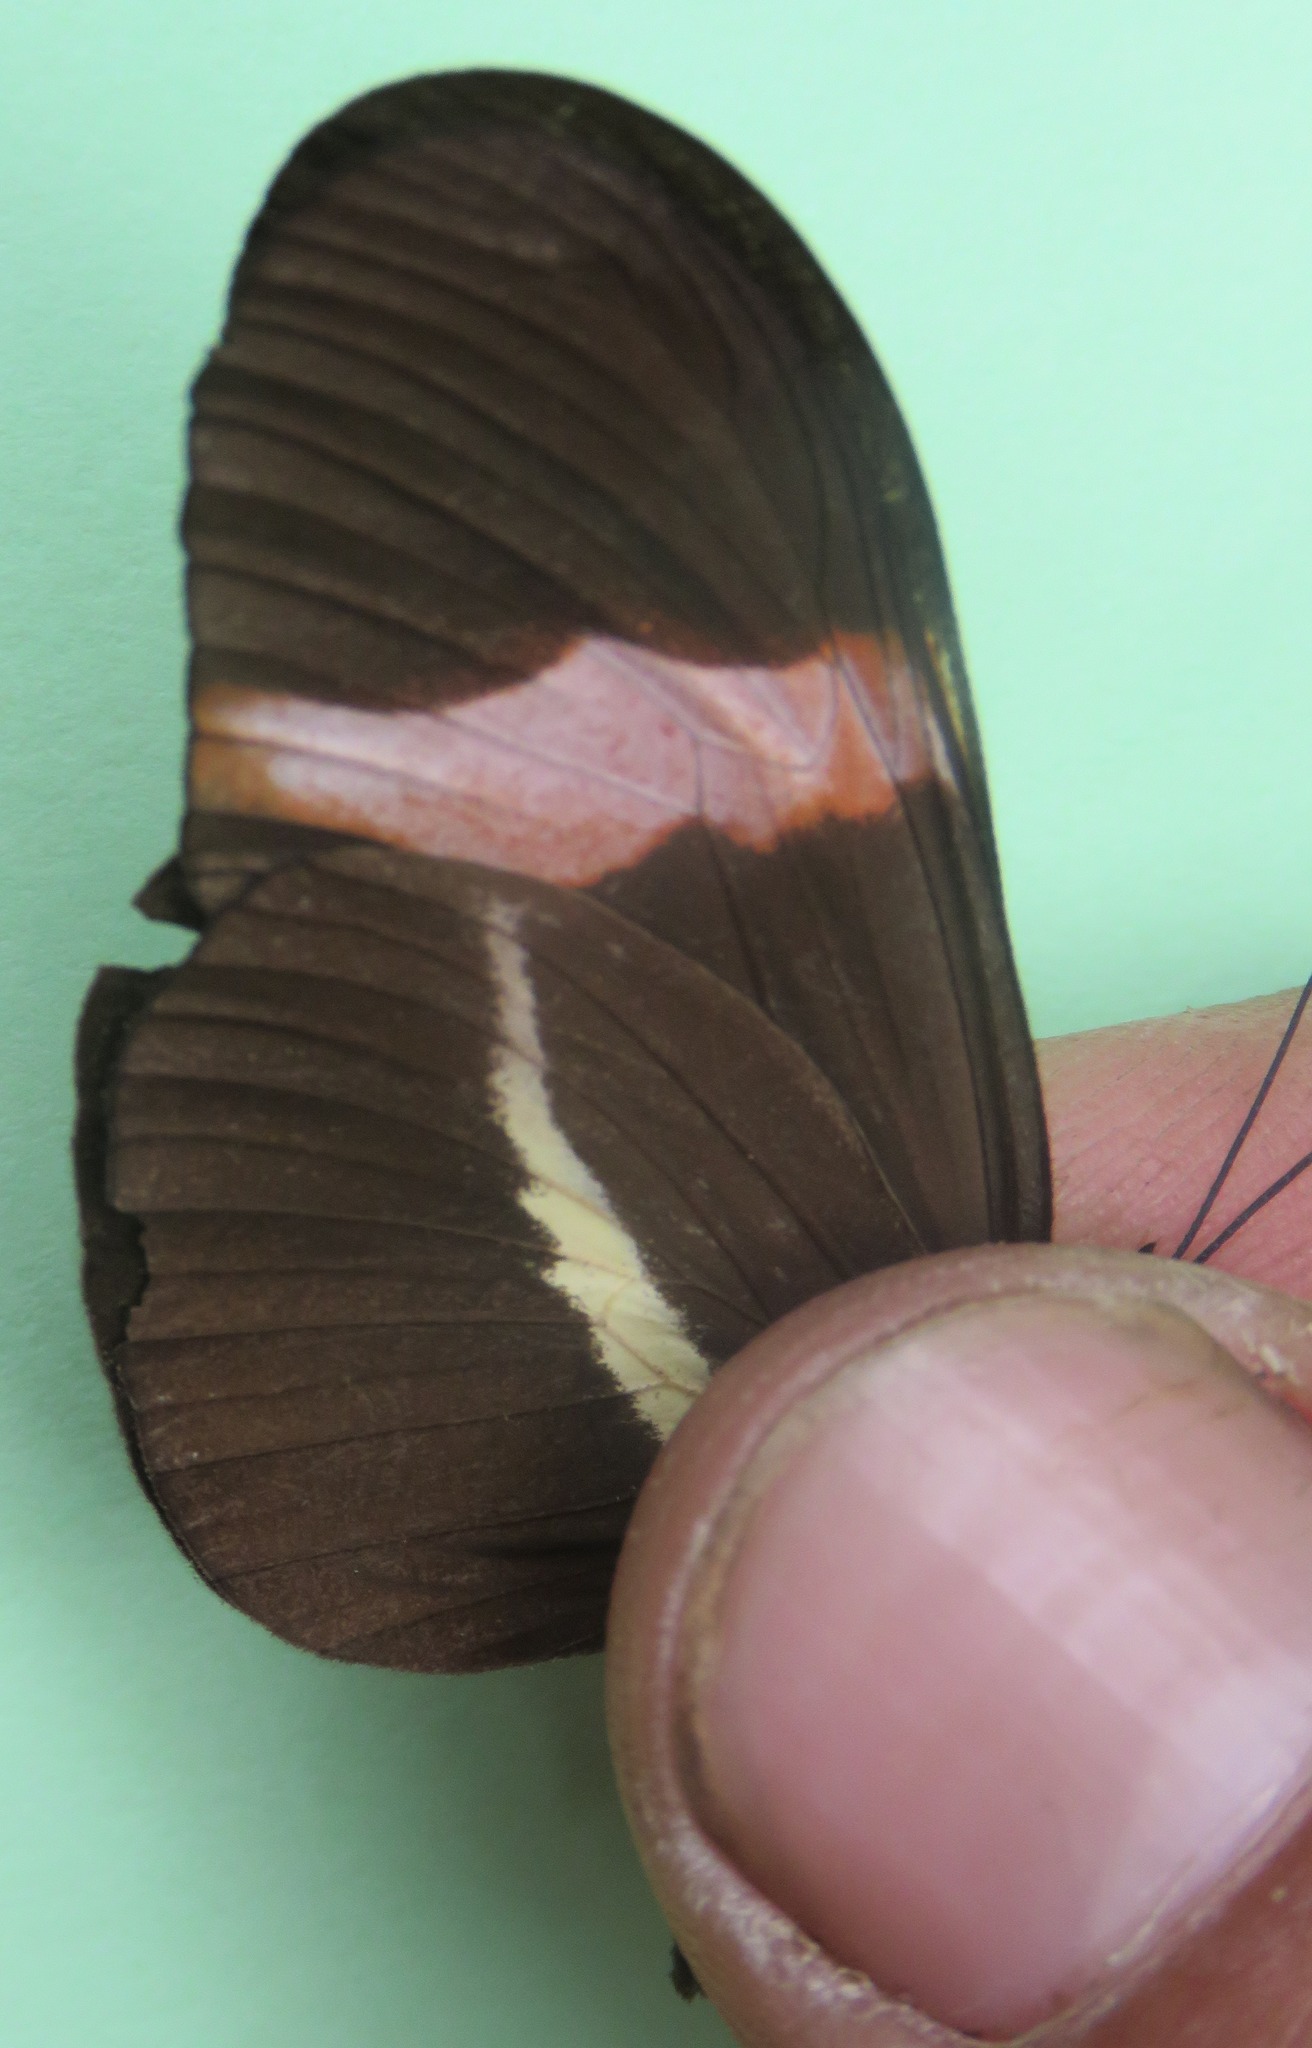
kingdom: Animalia
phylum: Arthropoda
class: Insecta
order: Lepidoptera
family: Nymphalidae
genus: Tirumala
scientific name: Tirumala petiverana
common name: Blue monarch
